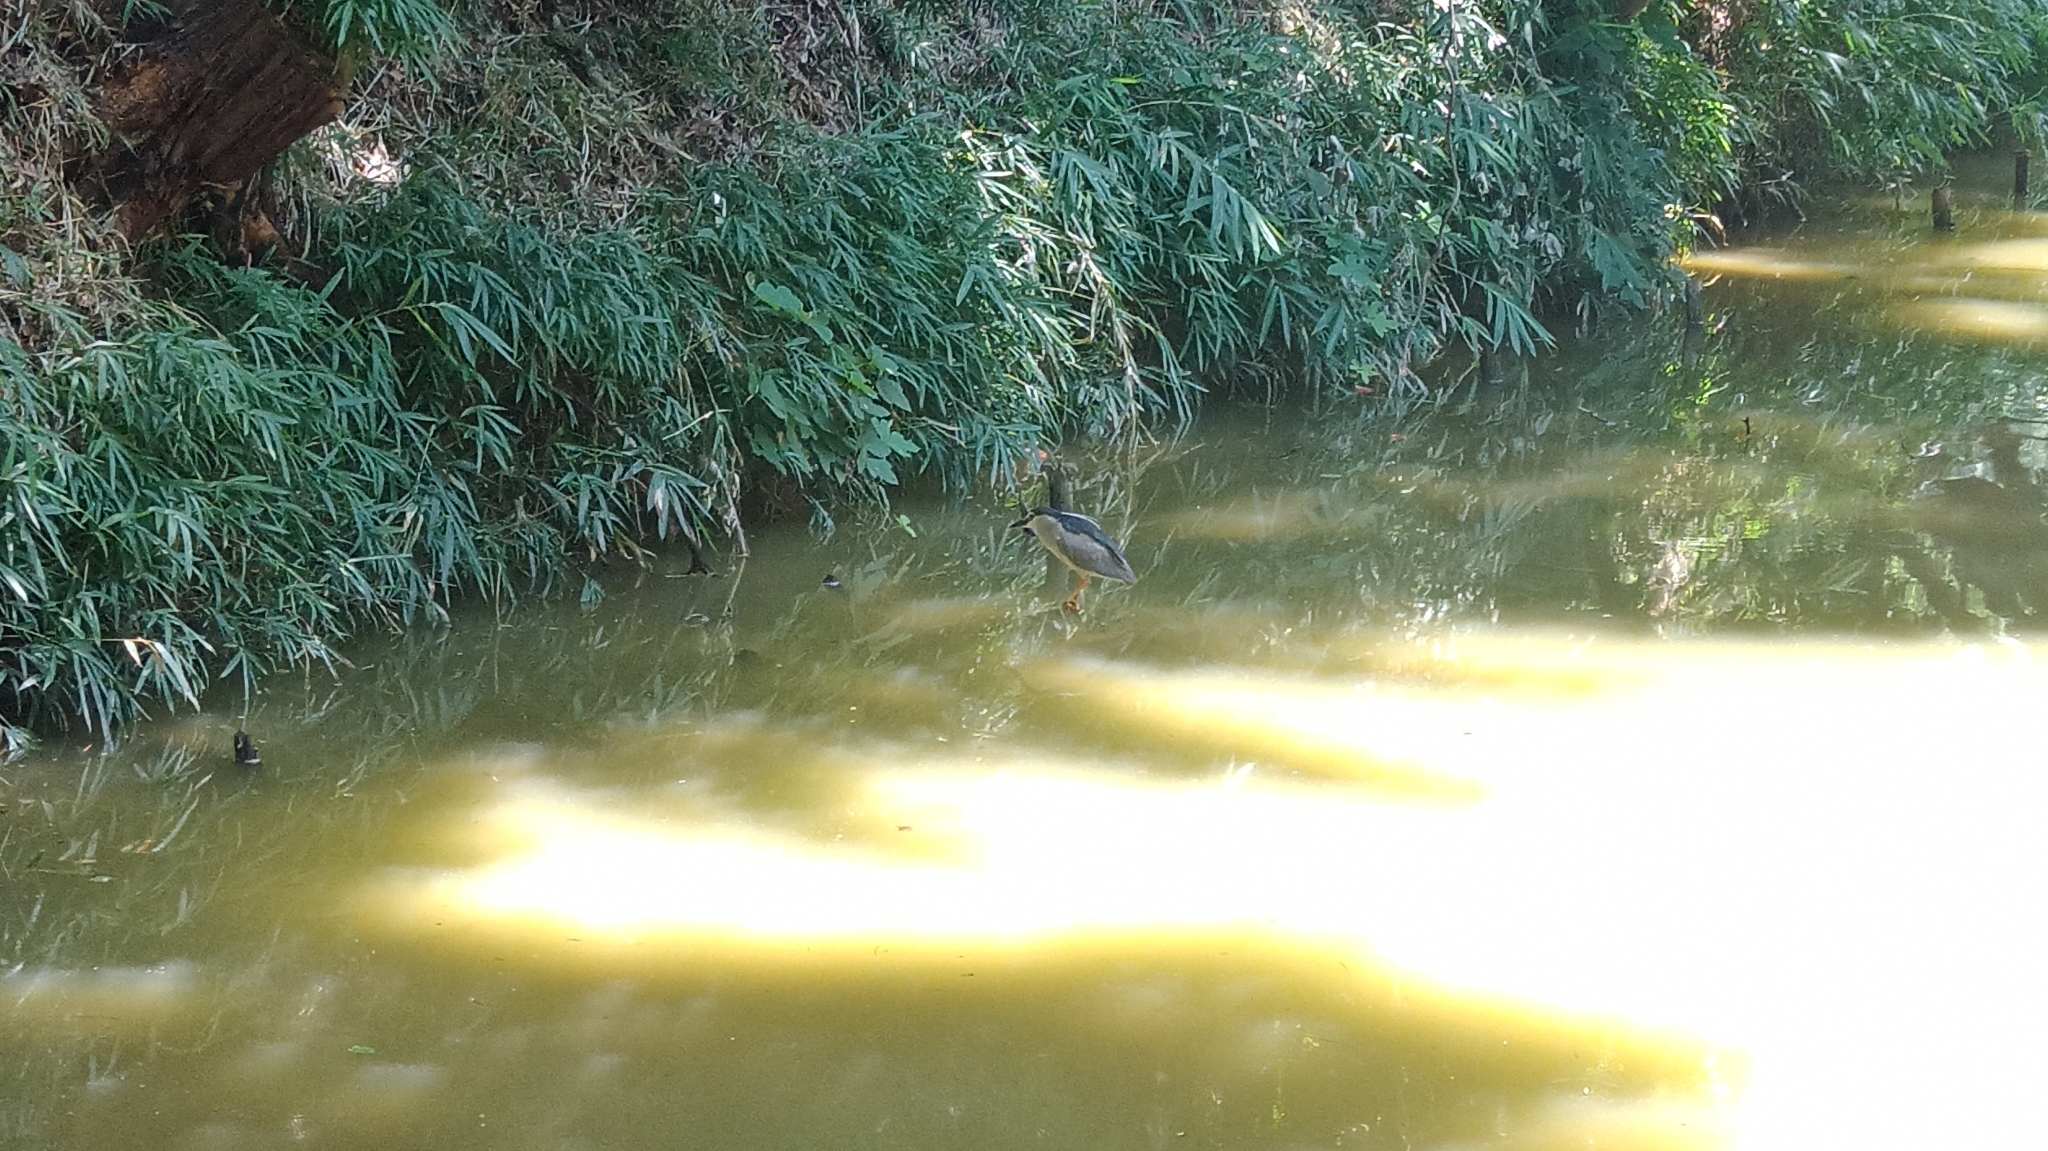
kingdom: Animalia
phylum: Chordata
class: Aves
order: Pelecaniformes
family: Ardeidae
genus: Nycticorax
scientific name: Nycticorax nycticorax
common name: Black-crowned night heron
